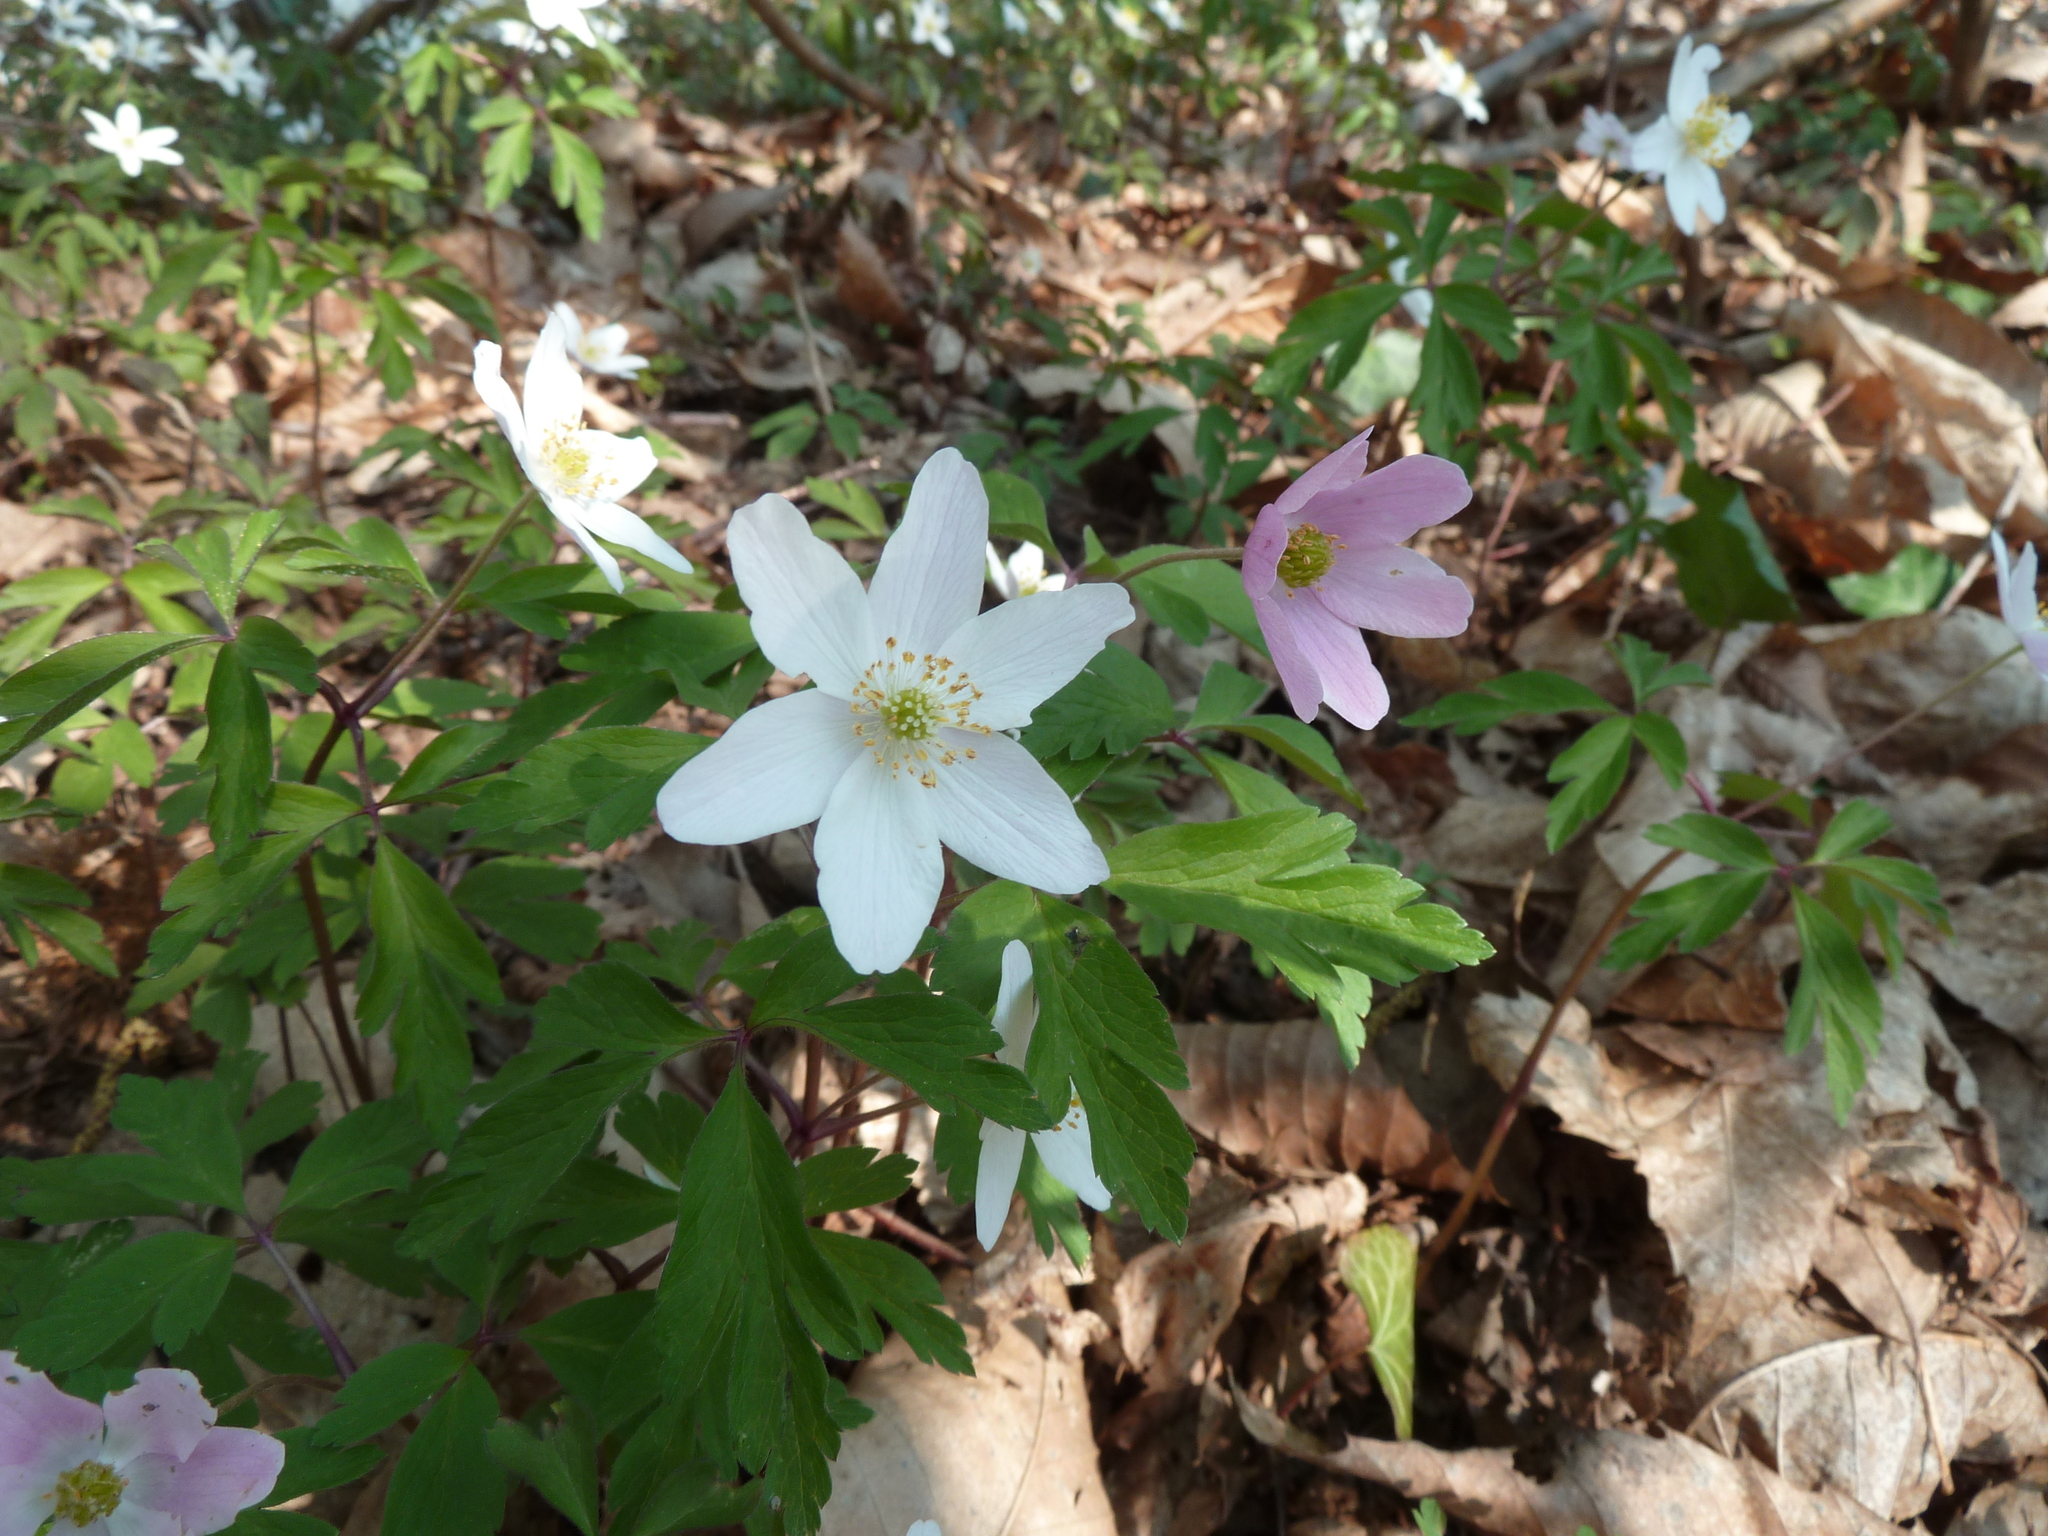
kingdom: Plantae
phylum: Tracheophyta
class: Magnoliopsida
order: Ranunculales
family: Ranunculaceae
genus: Anemone
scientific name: Anemone nemorosa
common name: Wood anemone
